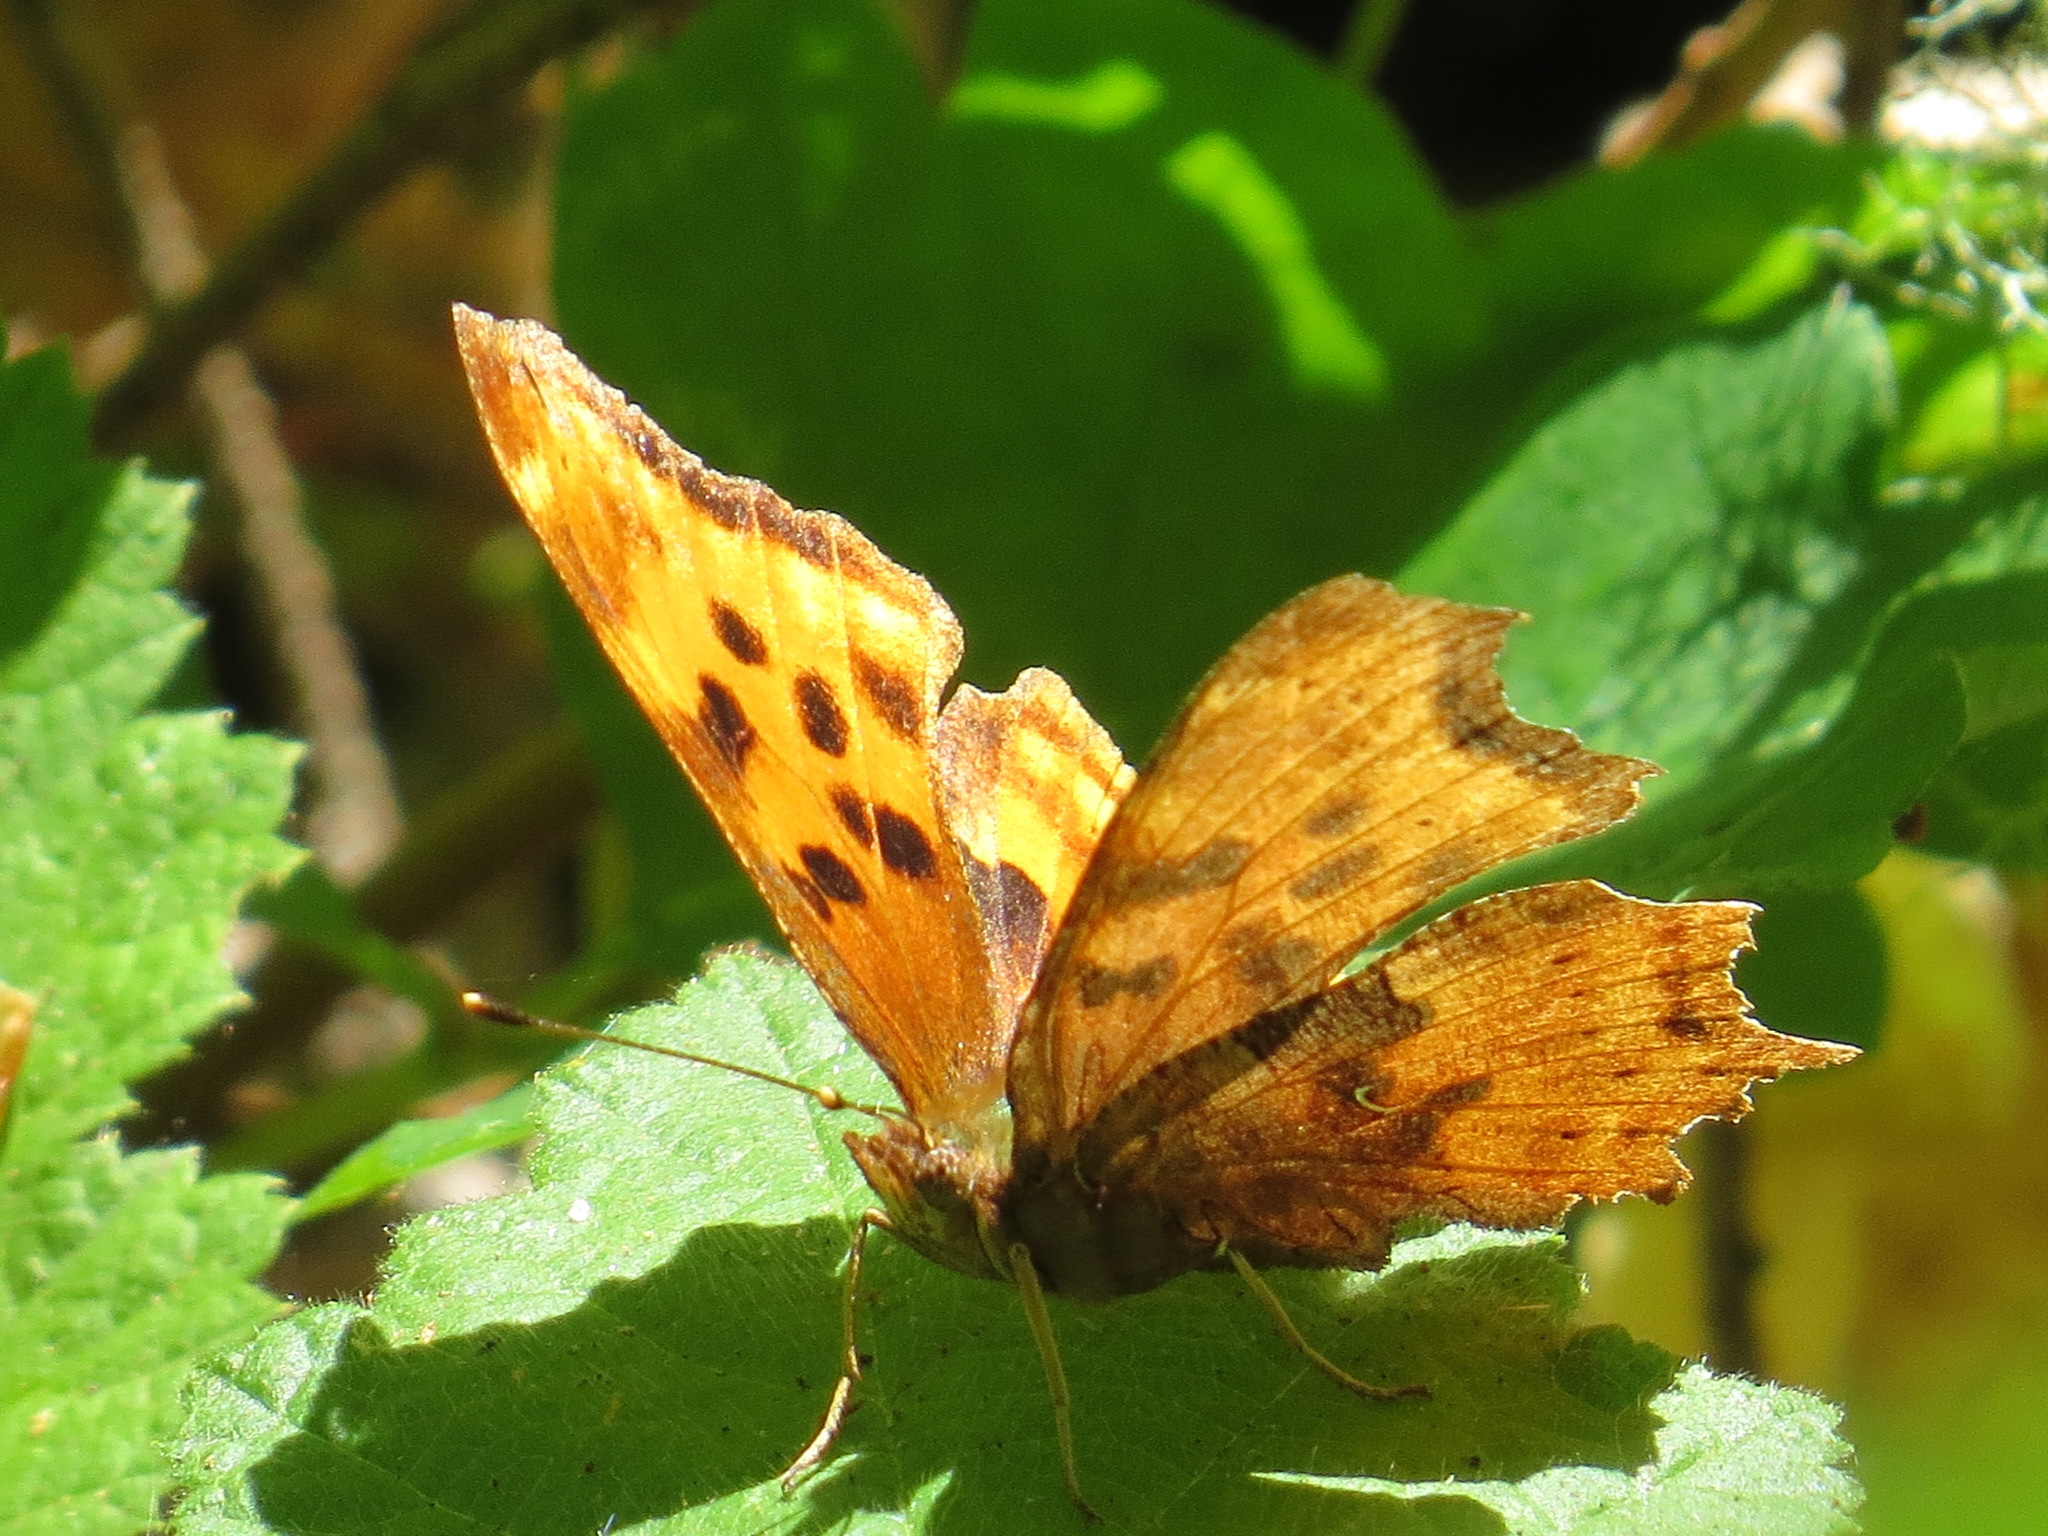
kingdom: Animalia
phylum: Arthropoda
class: Insecta
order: Lepidoptera
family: Nymphalidae
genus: Polygonia
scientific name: Polygonia satyrus
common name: Satyr angle wing
